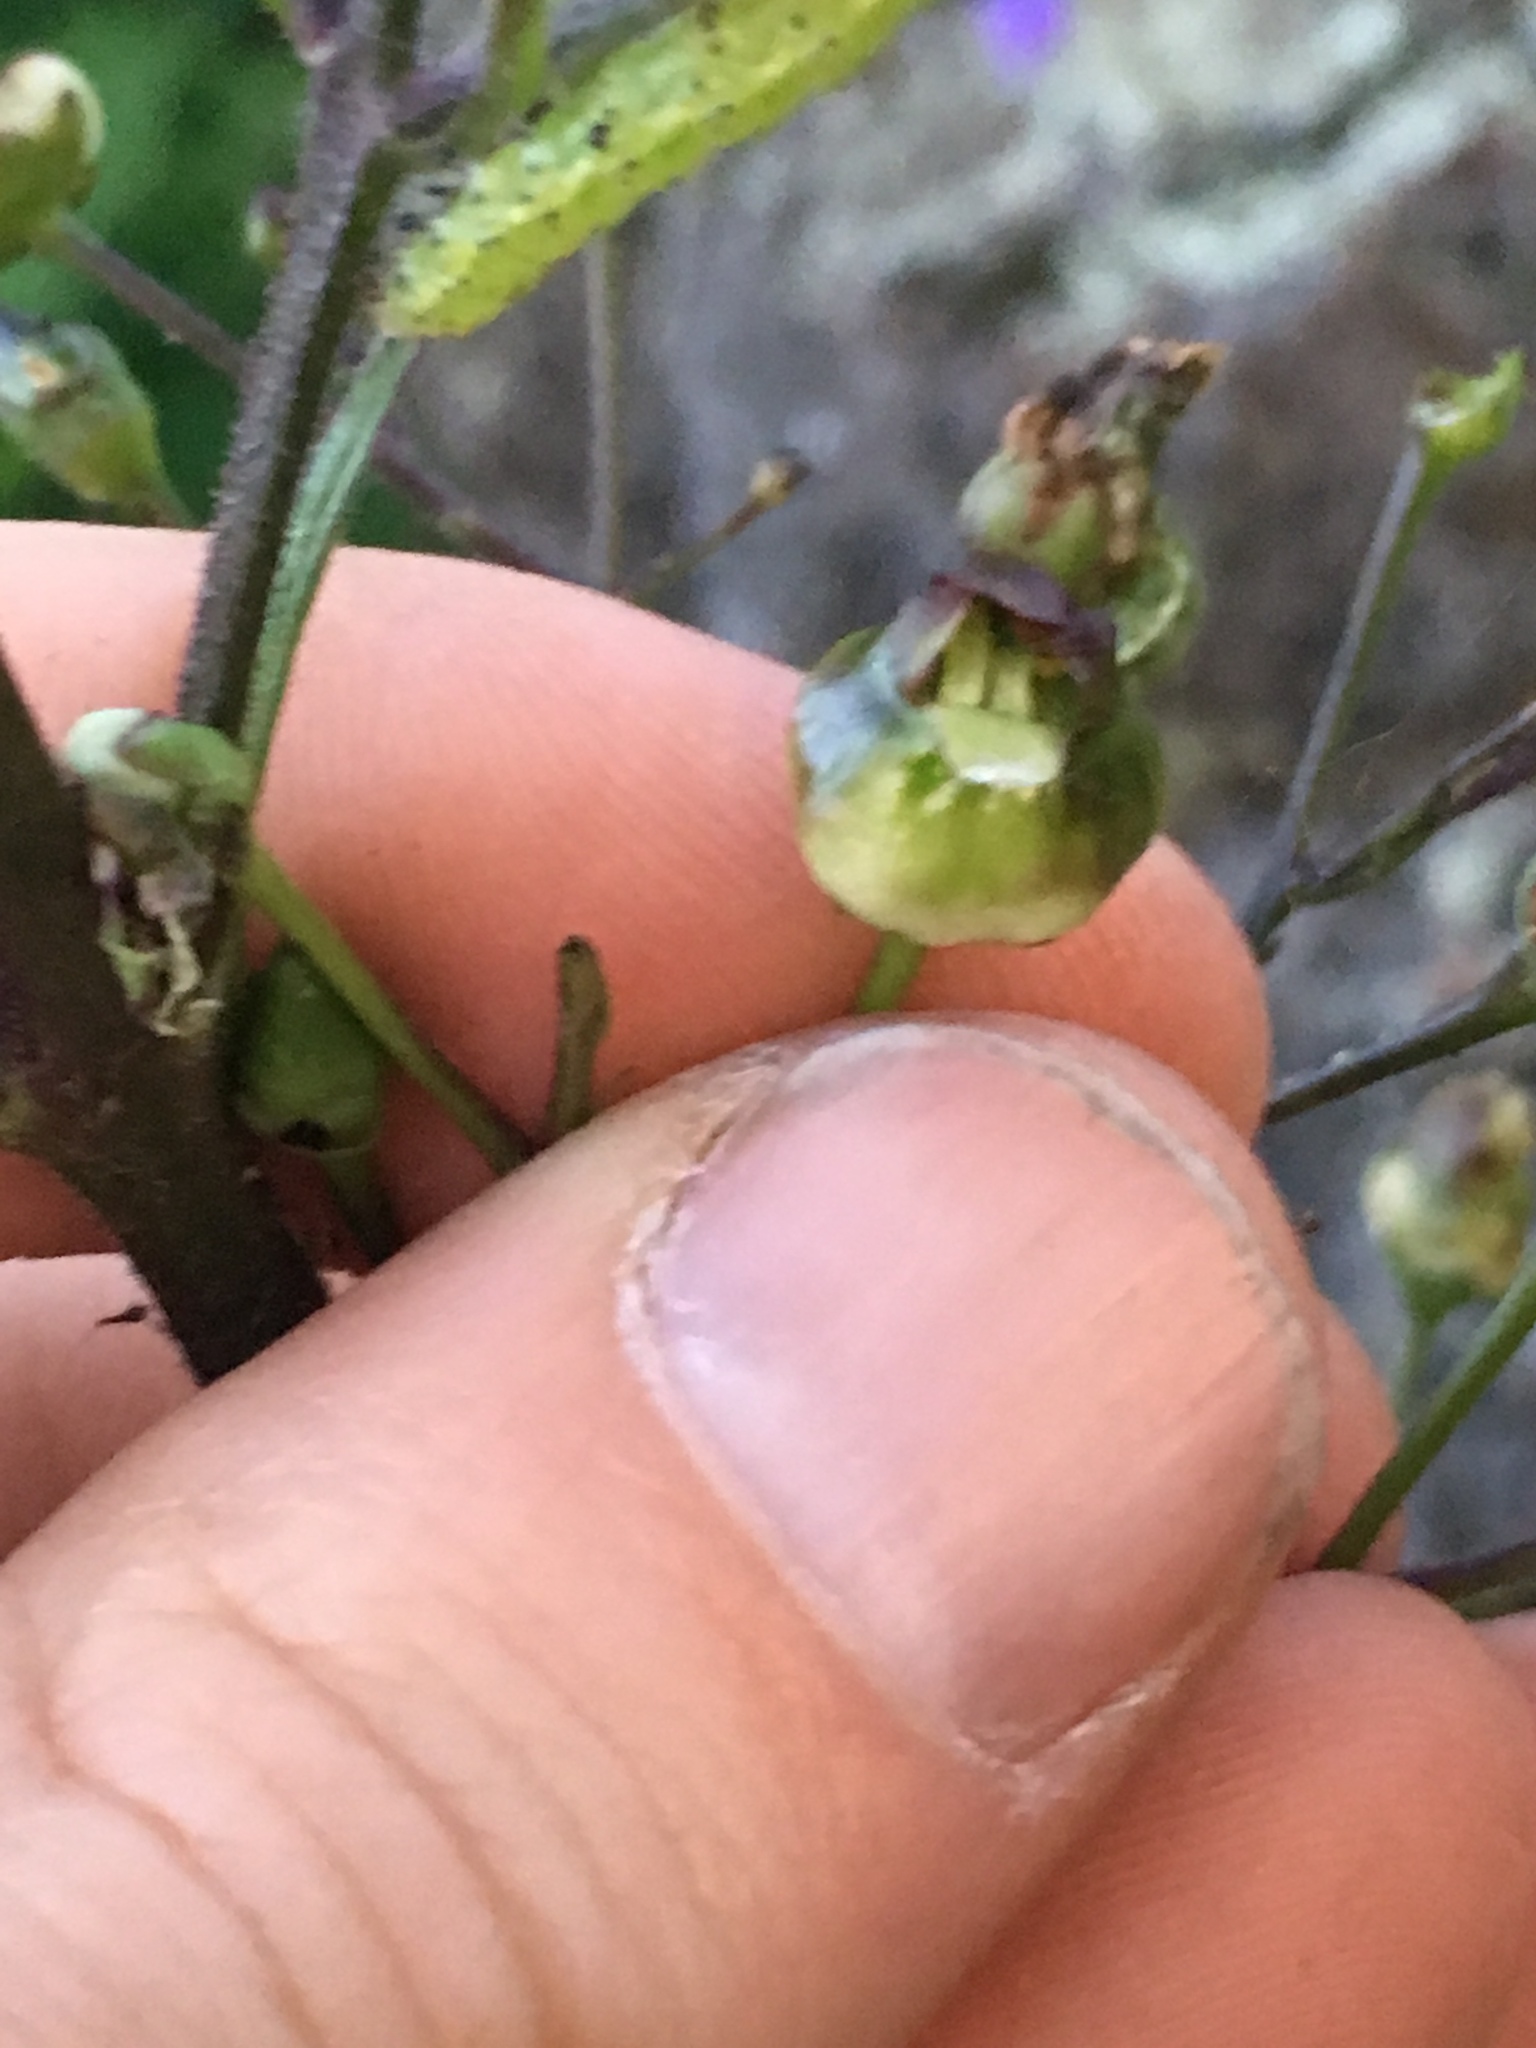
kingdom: Plantae
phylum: Tracheophyta
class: Magnoliopsida
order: Lamiales
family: Scrophulariaceae
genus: Scrophularia
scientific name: Scrophularia lanceolata
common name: American figwort
